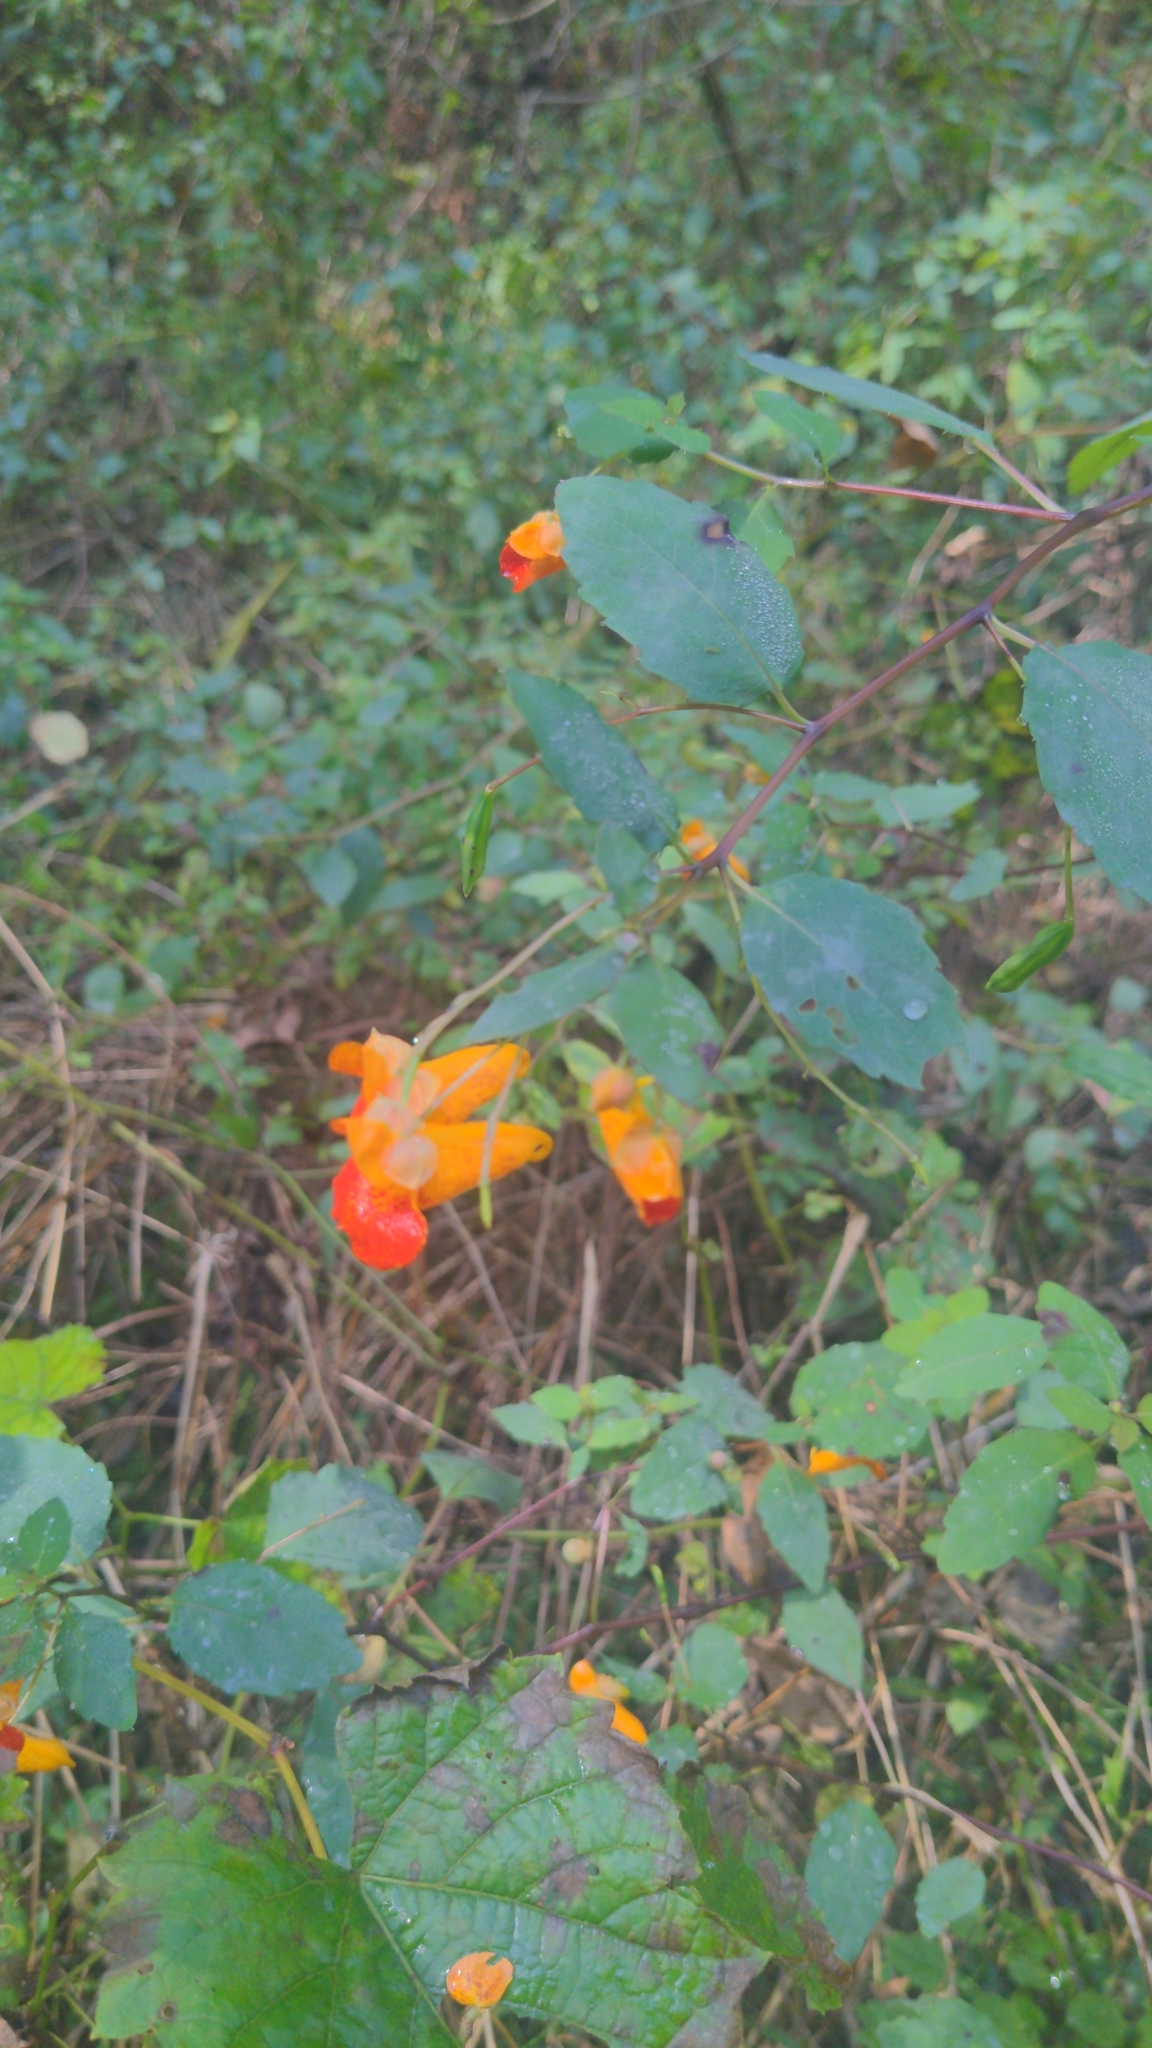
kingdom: Plantae
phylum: Tracheophyta
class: Magnoliopsida
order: Ericales
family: Balsaminaceae
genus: Impatiens
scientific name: Impatiens capensis
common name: Orange balsam
